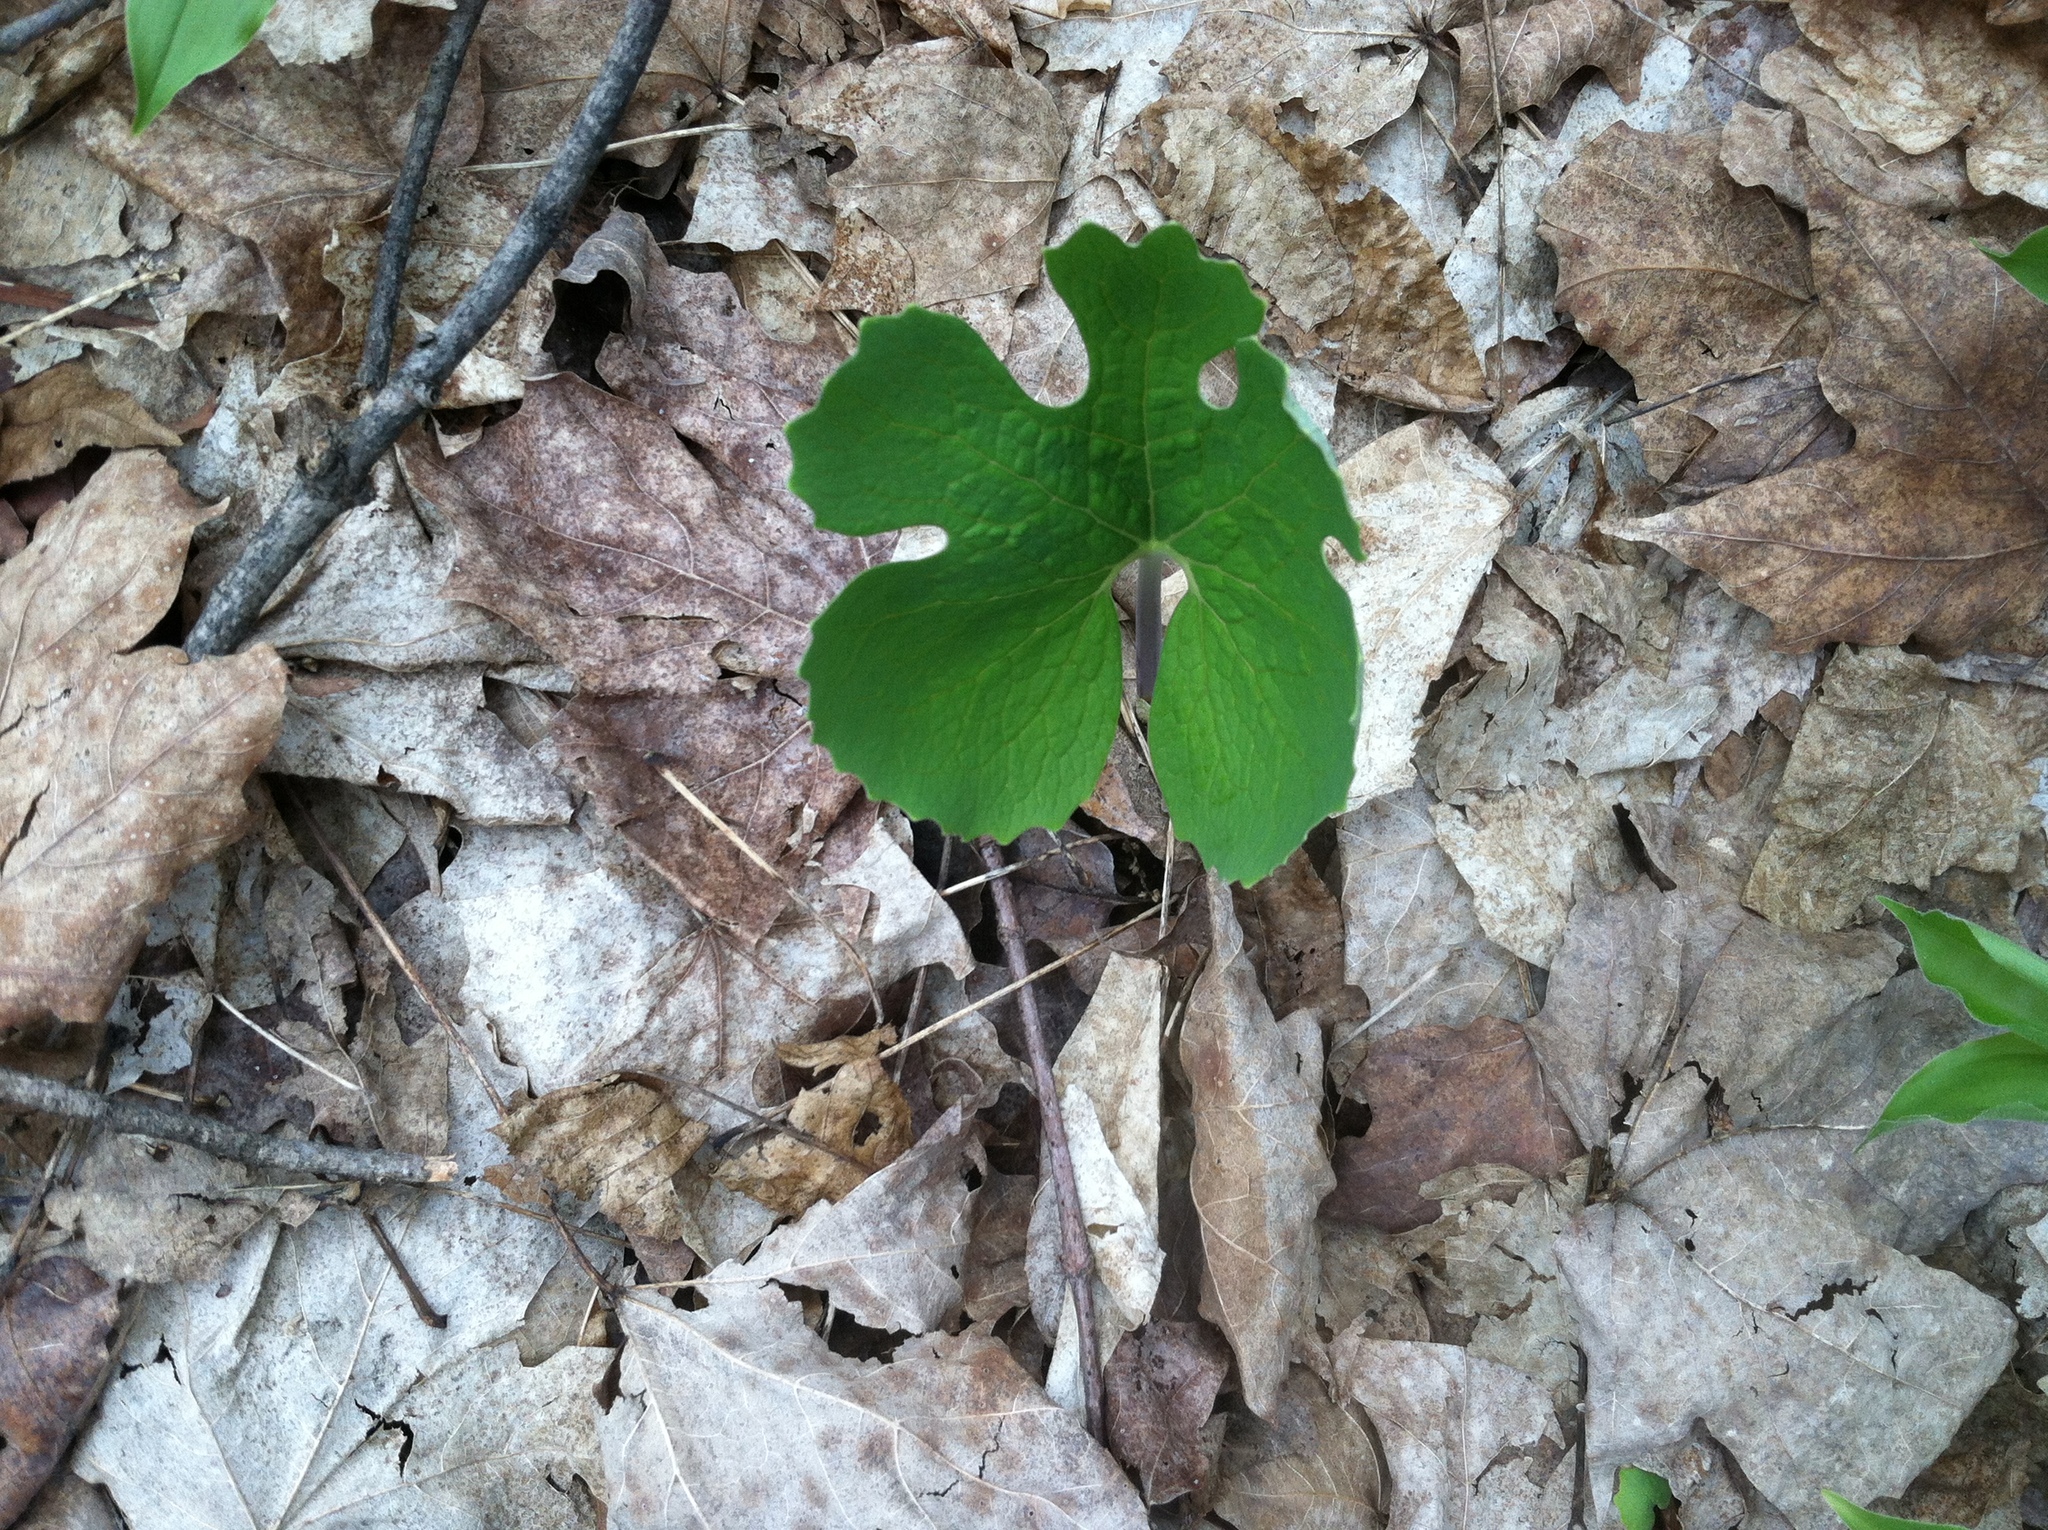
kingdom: Plantae
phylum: Tracheophyta
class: Magnoliopsida
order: Ranunculales
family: Papaveraceae
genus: Sanguinaria
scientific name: Sanguinaria canadensis
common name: Bloodroot
